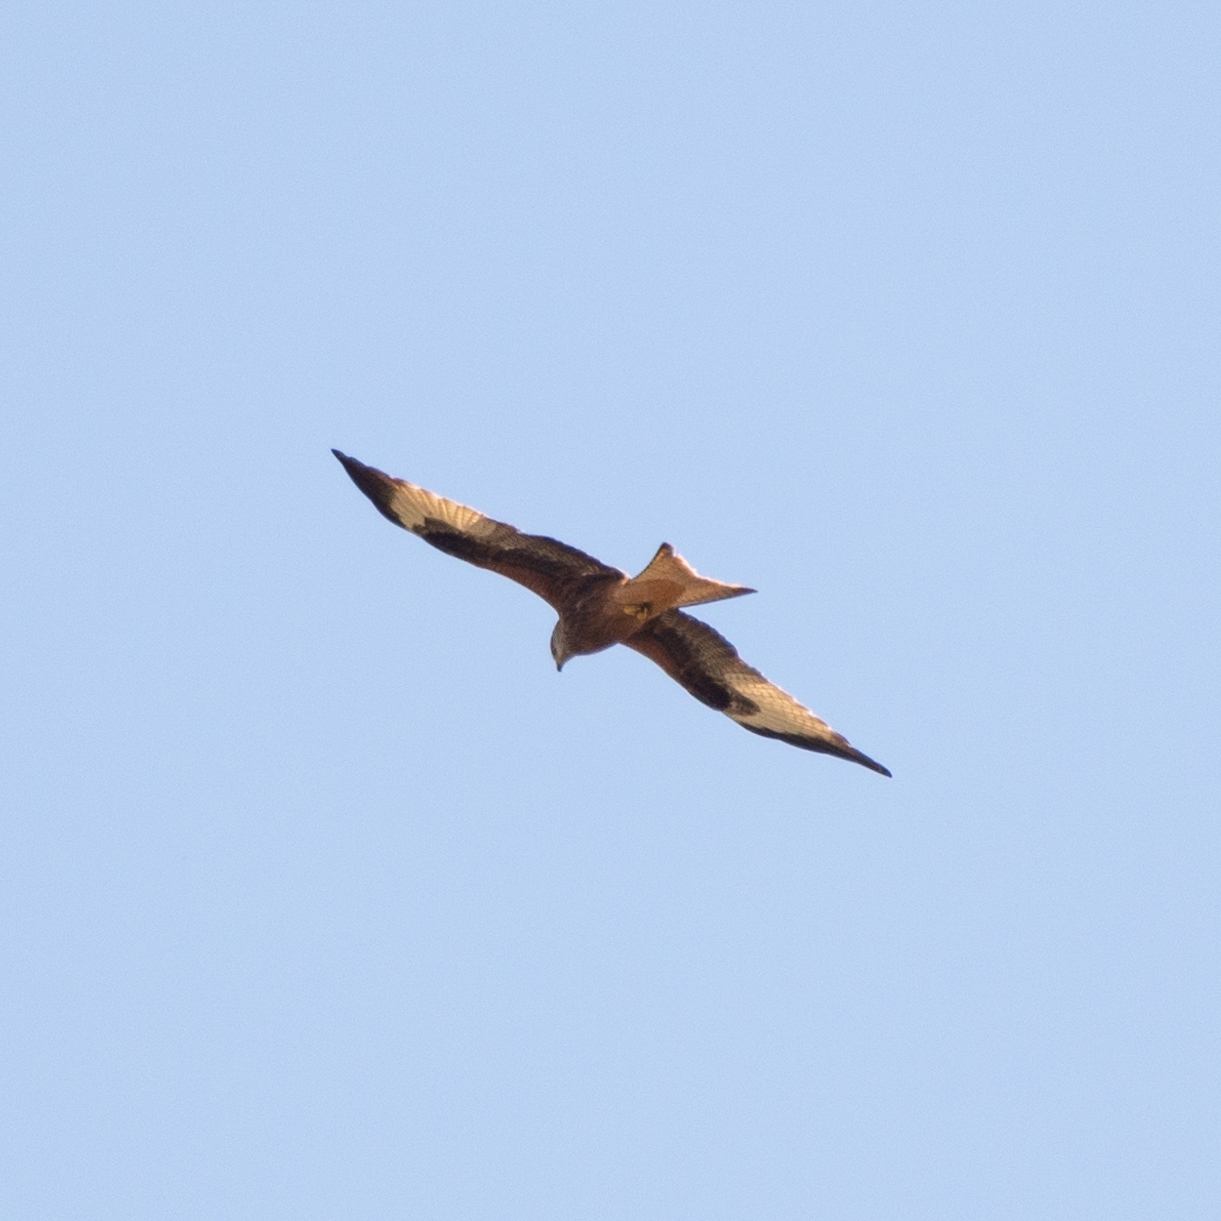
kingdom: Animalia
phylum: Chordata
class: Aves
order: Accipitriformes
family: Accipitridae
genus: Milvus
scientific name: Milvus milvus
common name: Red kite
